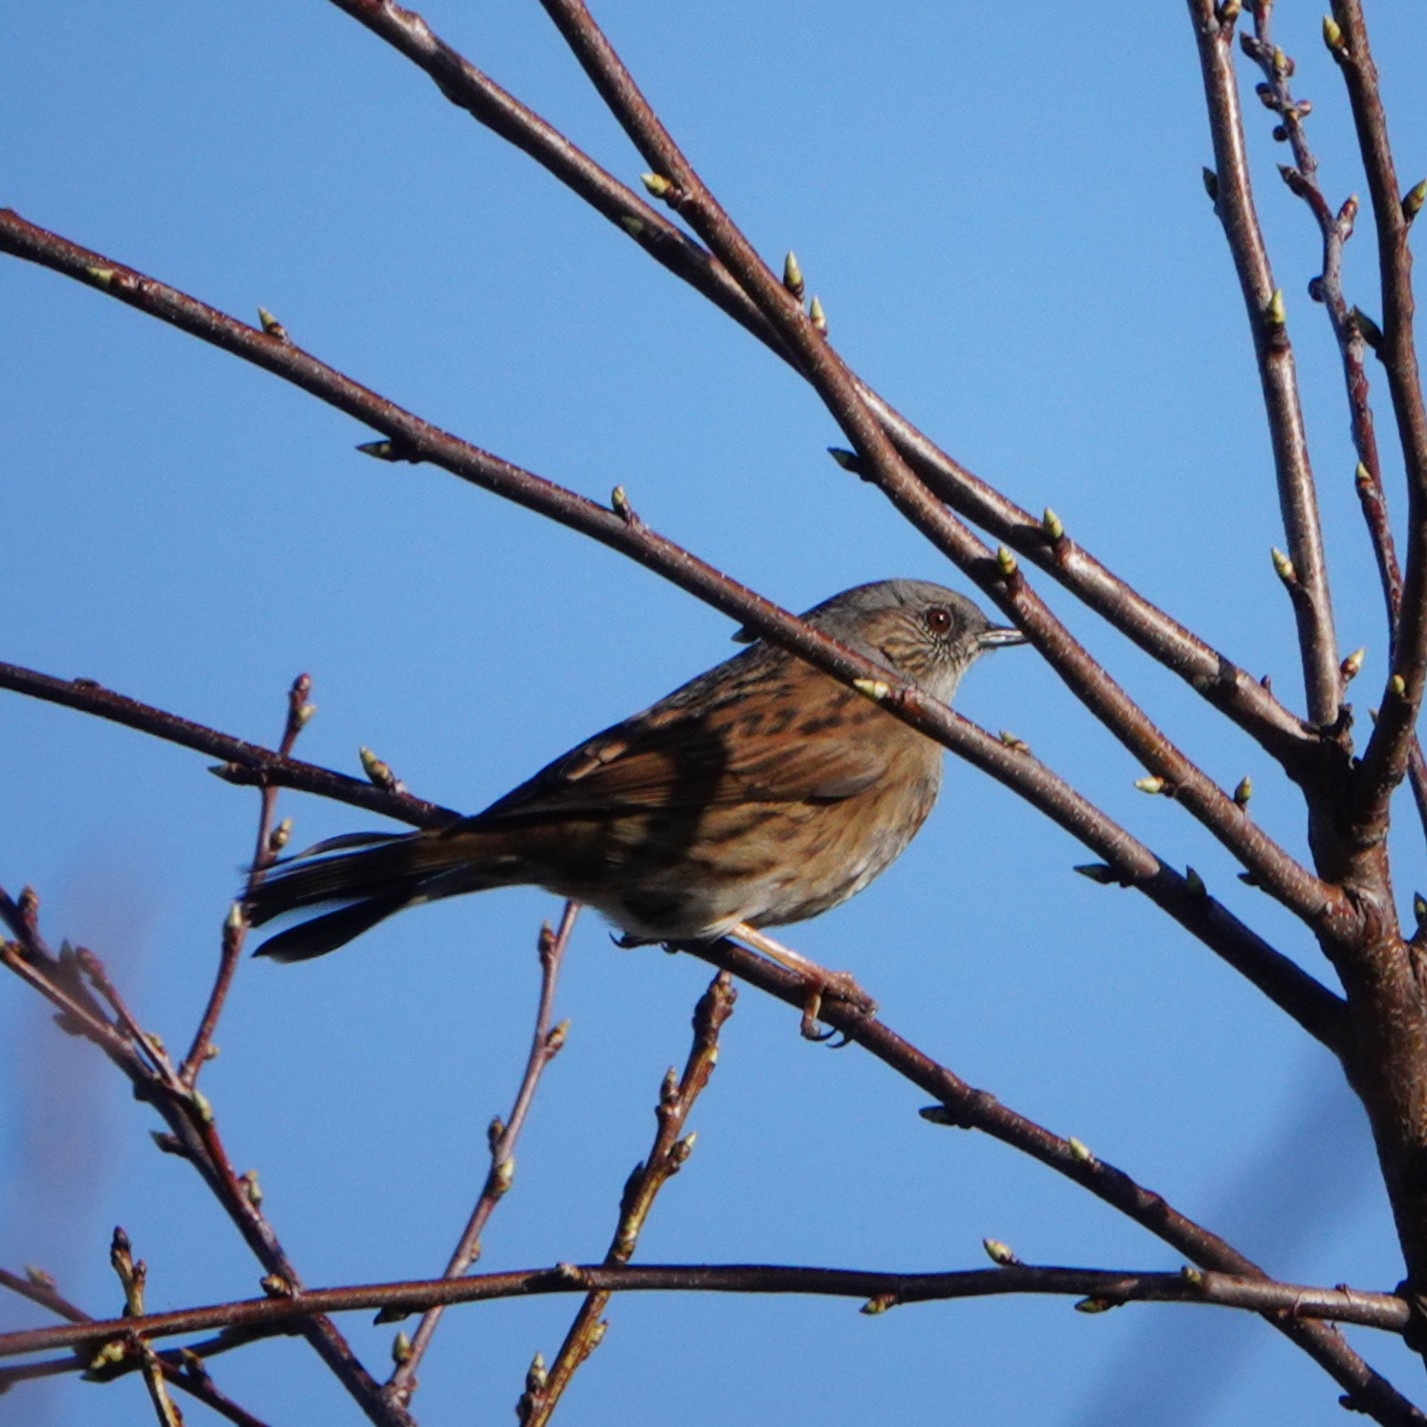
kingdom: Animalia
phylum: Chordata
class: Aves
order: Passeriformes
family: Prunellidae
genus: Prunella
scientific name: Prunella modularis
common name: Dunnock
